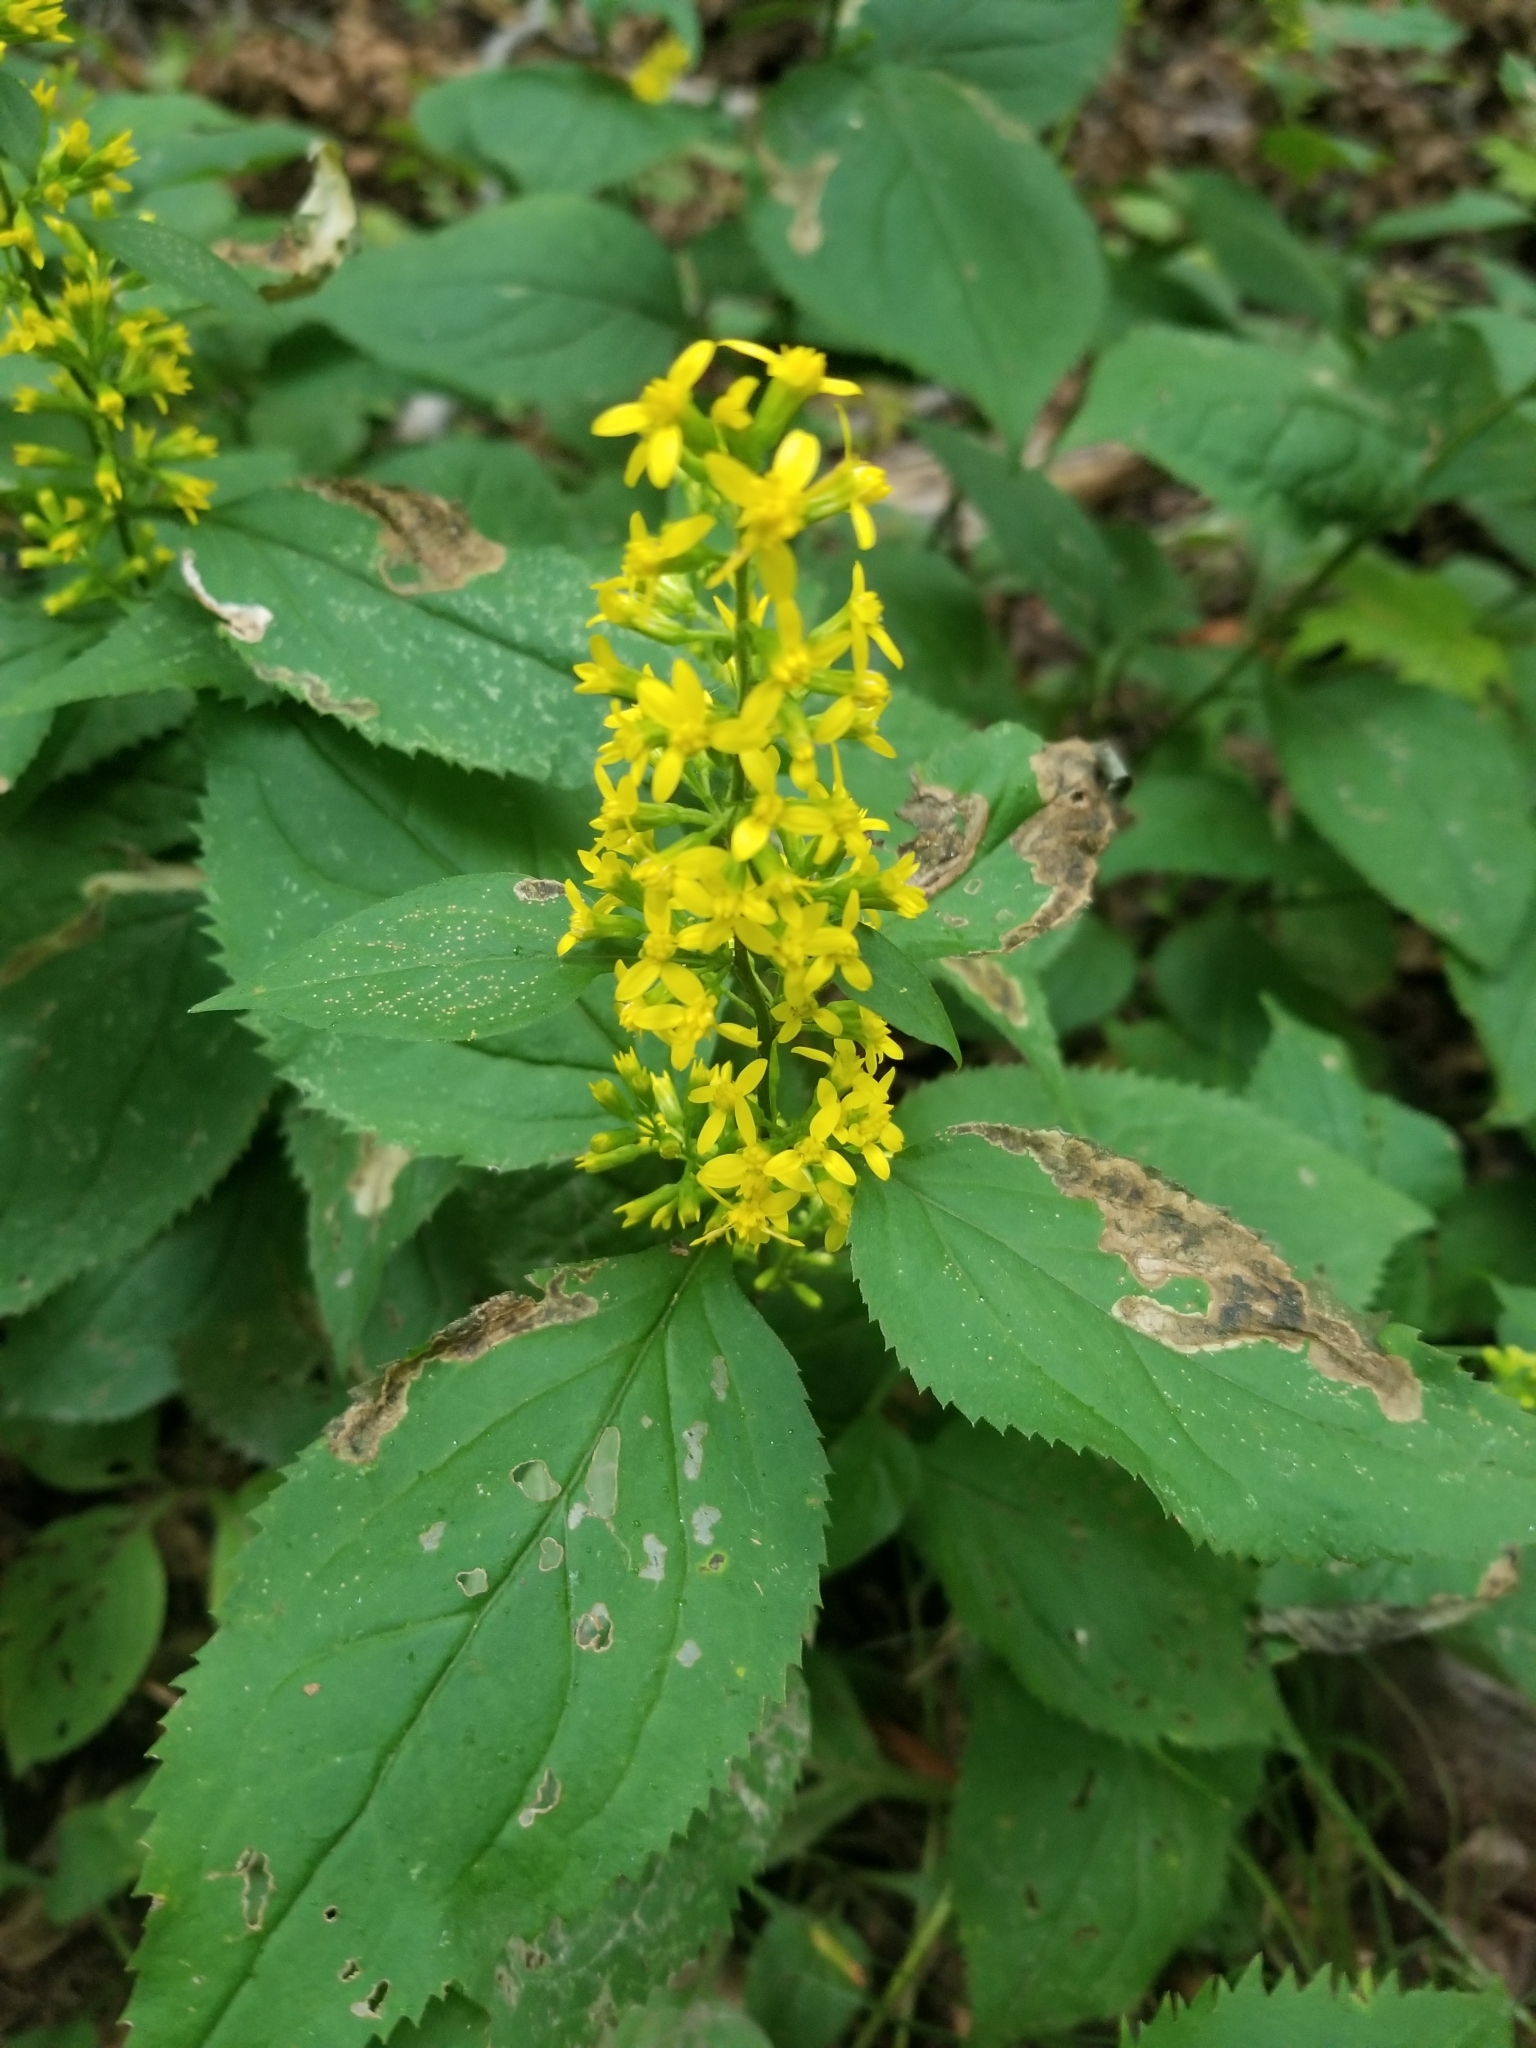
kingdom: Plantae
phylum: Tracheophyta
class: Magnoliopsida
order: Asterales
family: Asteraceae
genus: Solidago
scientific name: Solidago flexicaulis
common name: Zig-zag goldenrod
